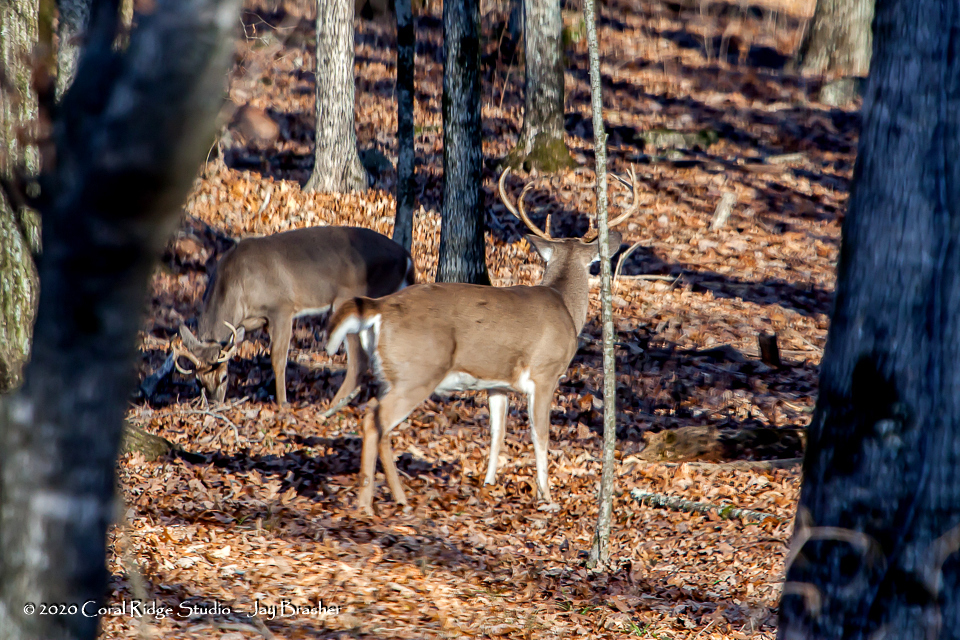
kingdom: Animalia
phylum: Chordata
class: Mammalia
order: Artiodactyla
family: Cervidae
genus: Odocoileus
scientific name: Odocoileus virginianus
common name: White-tailed deer
